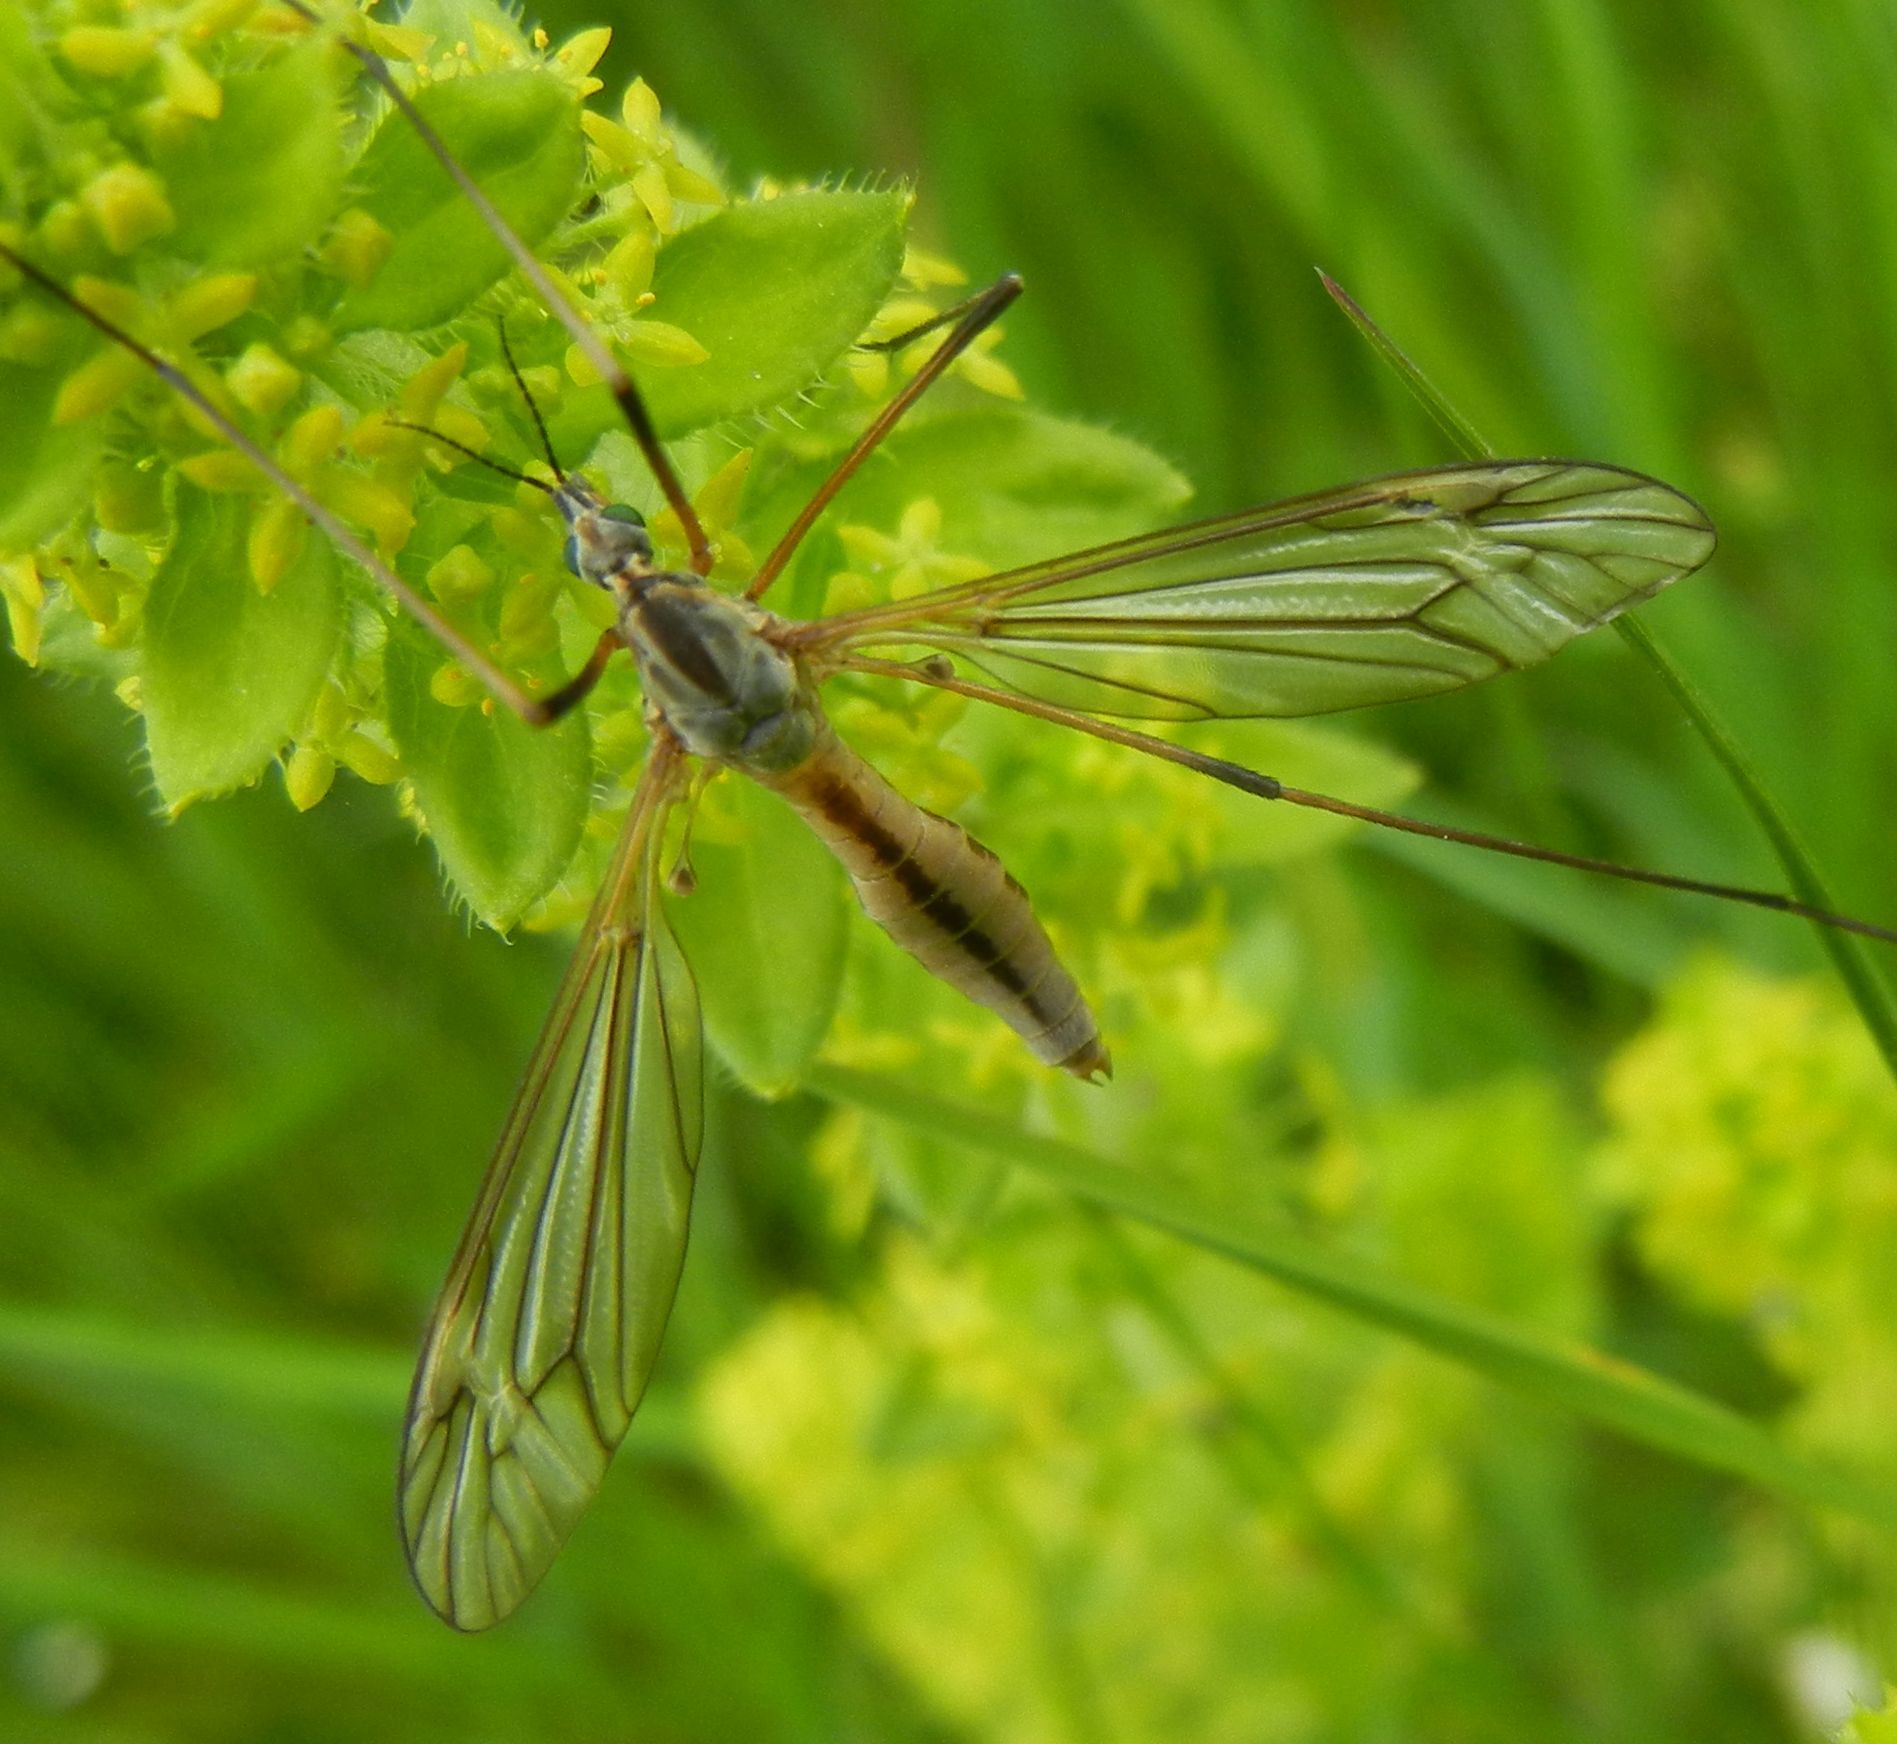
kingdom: Animalia
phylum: Arthropoda
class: Insecta
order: Diptera
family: Tipulidae
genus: Tipula
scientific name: Tipula vernalis
